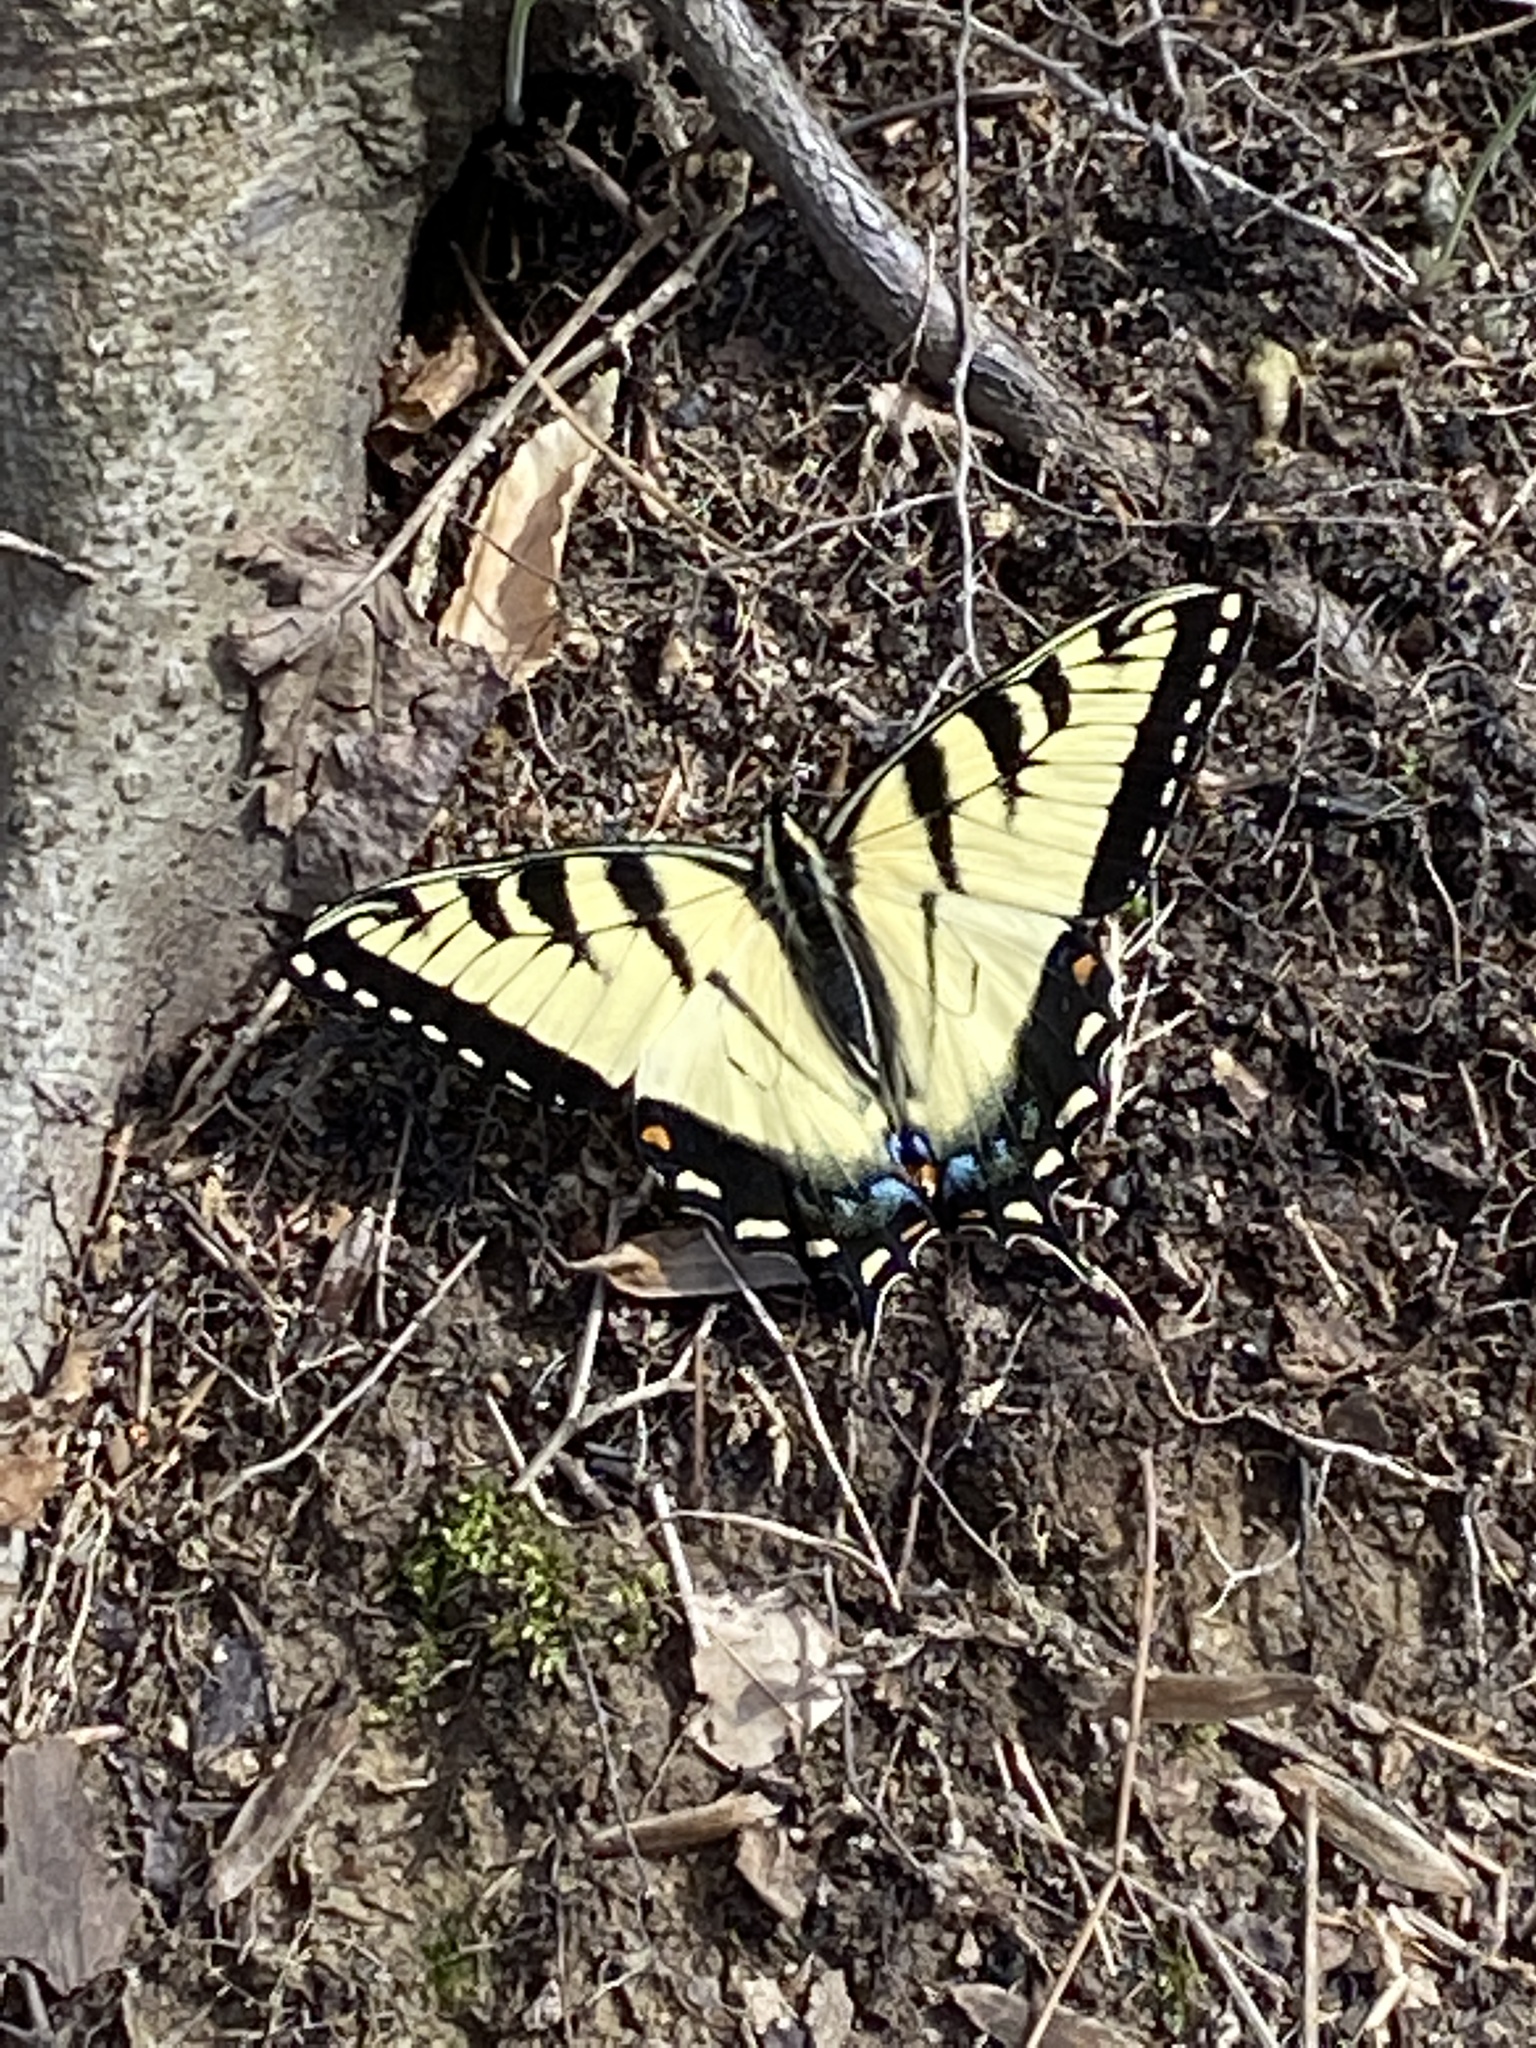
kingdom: Animalia
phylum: Arthropoda
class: Insecta
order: Lepidoptera
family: Papilionidae
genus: Papilio
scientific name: Papilio glaucus
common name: Tiger swallowtail
